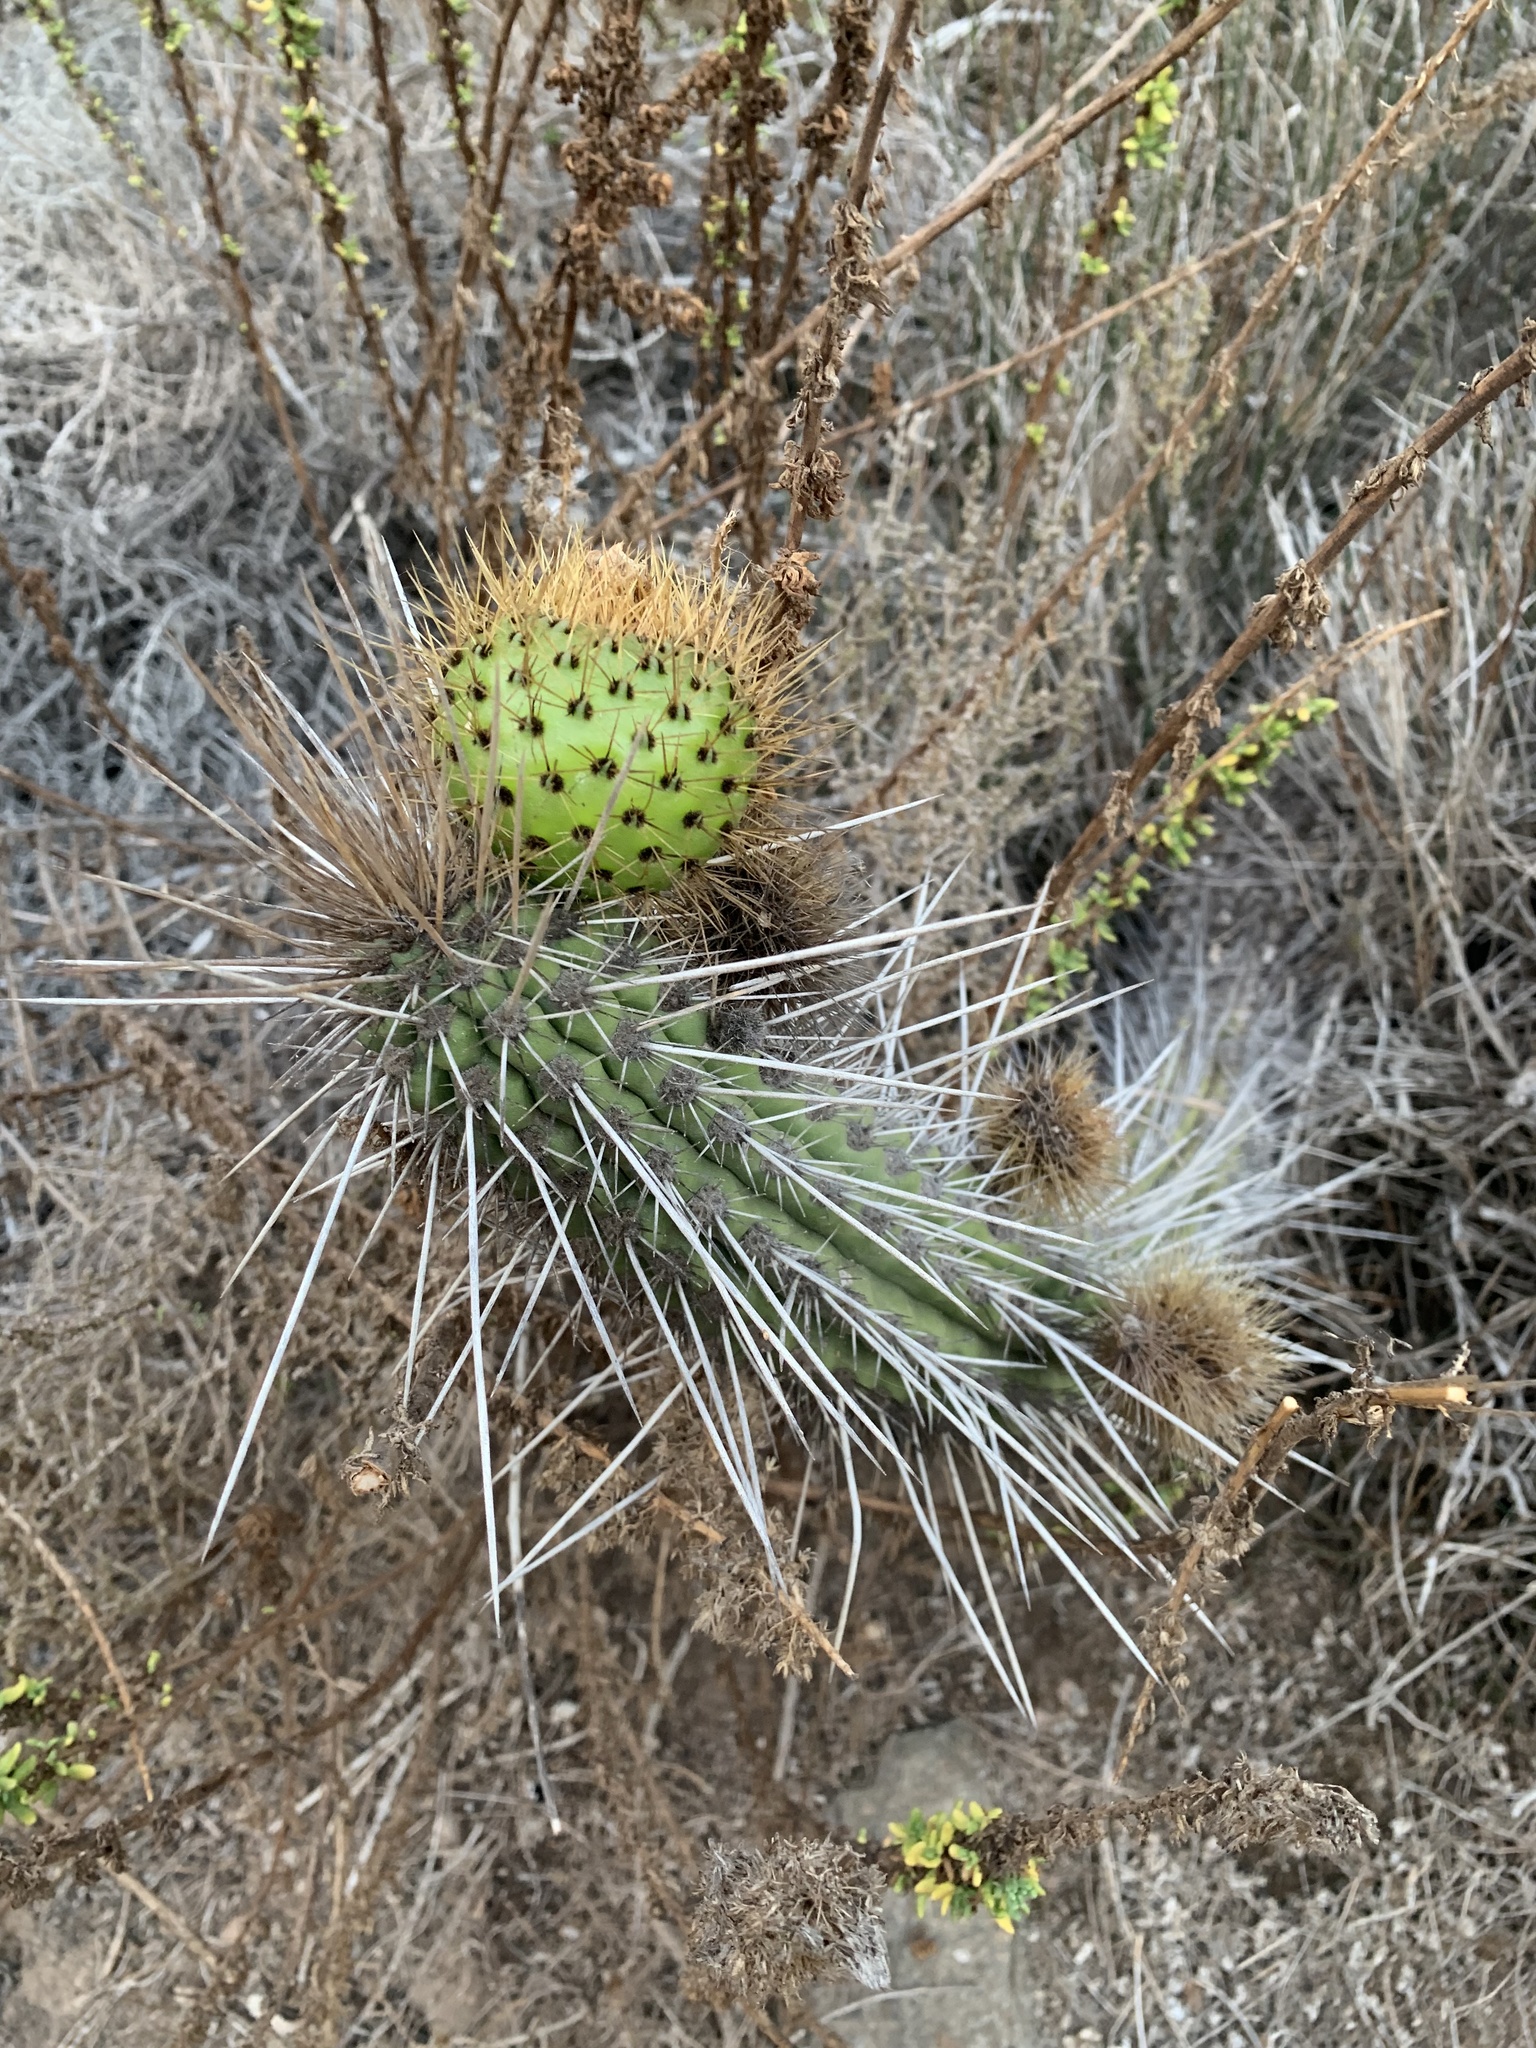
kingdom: Plantae
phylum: Tracheophyta
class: Magnoliopsida
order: Caryophyllales
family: Cactaceae
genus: Eulychnia
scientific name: Eulychnia castanea
